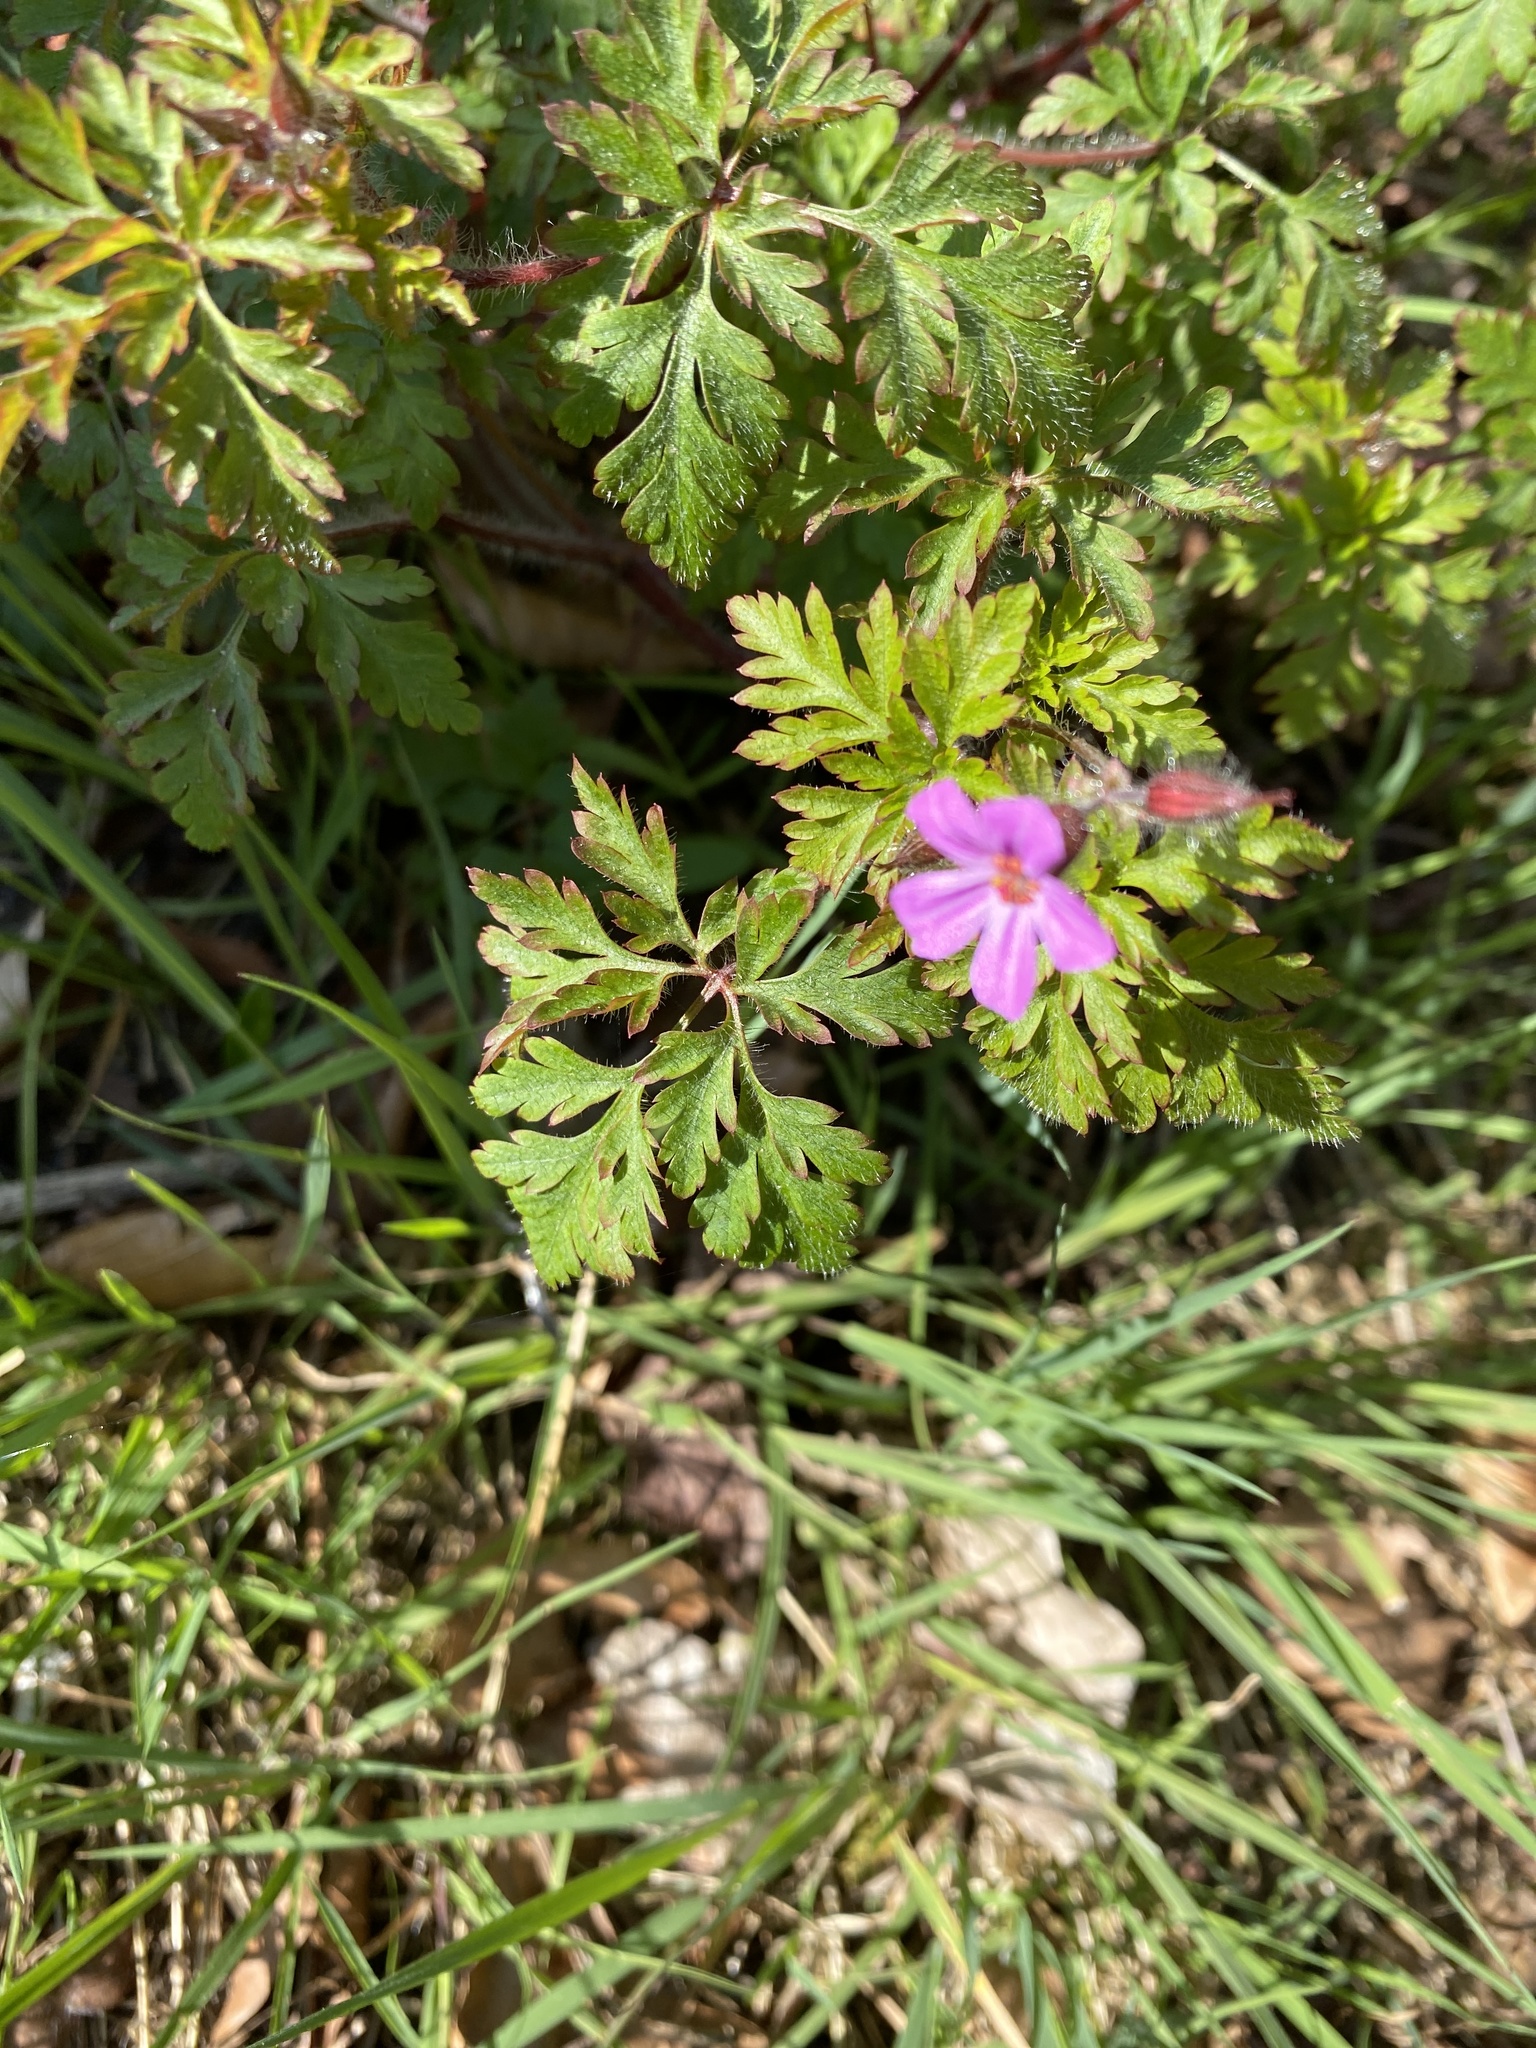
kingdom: Plantae
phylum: Tracheophyta
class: Magnoliopsida
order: Geraniales
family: Geraniaceae
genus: Geranium
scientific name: Geranium robertianum
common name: Herb-robert
